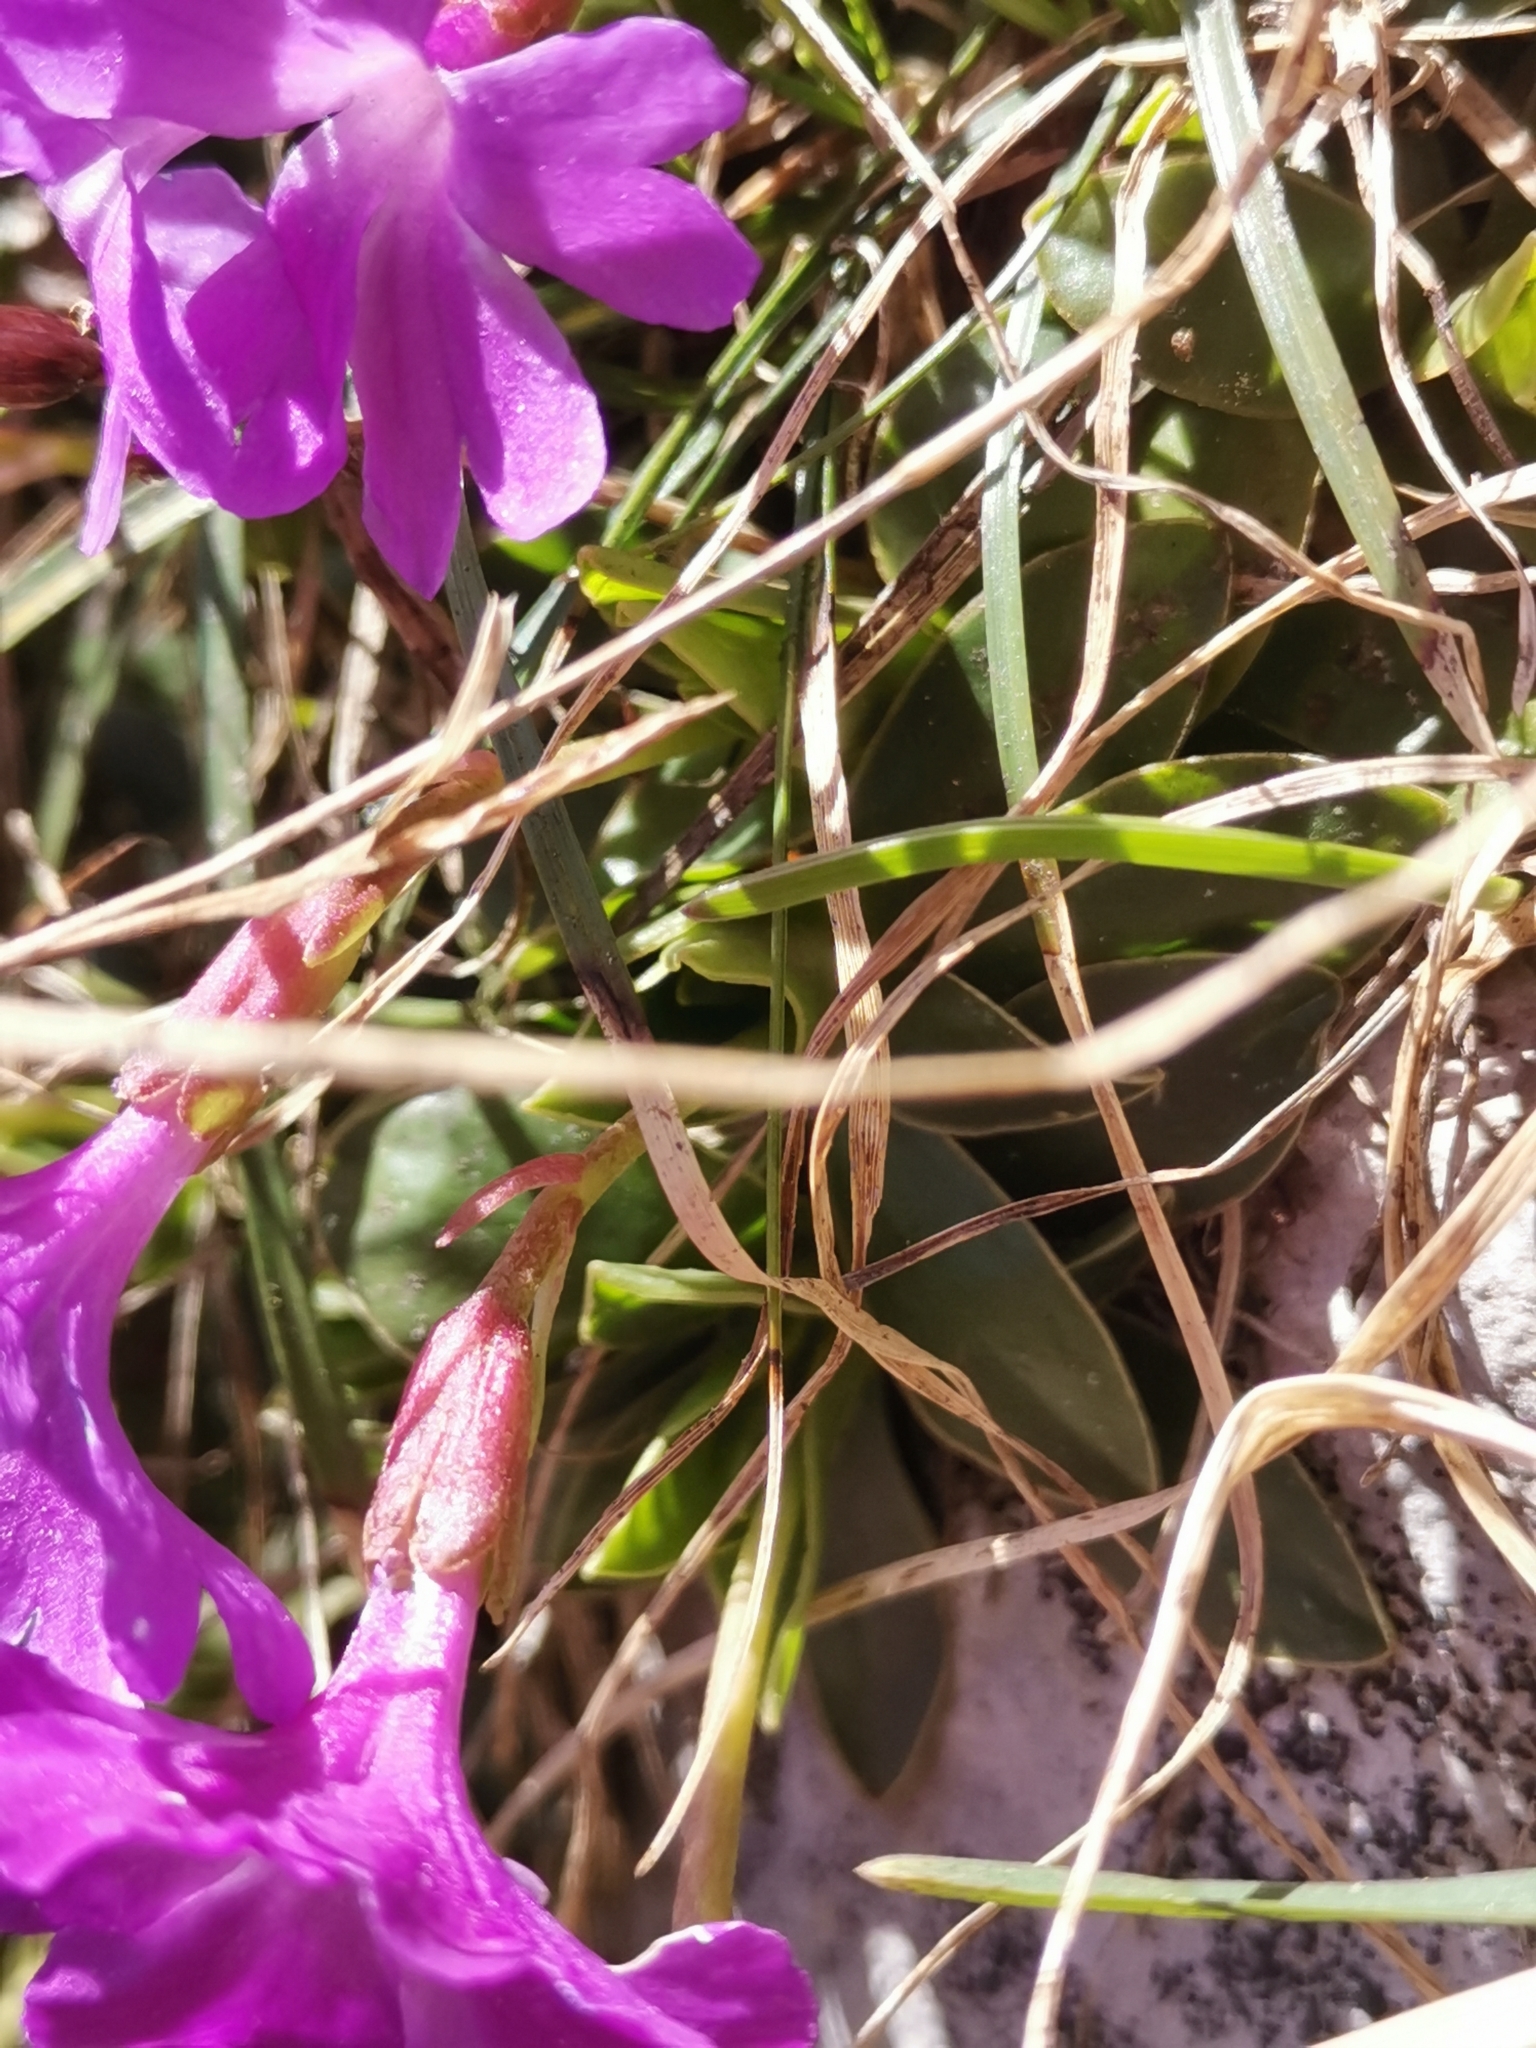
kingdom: Plantae
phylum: Tracheophyta
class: Magnoliopsida
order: Ericales
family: Primulaceae
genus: Primula
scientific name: Primula wulfeniana
